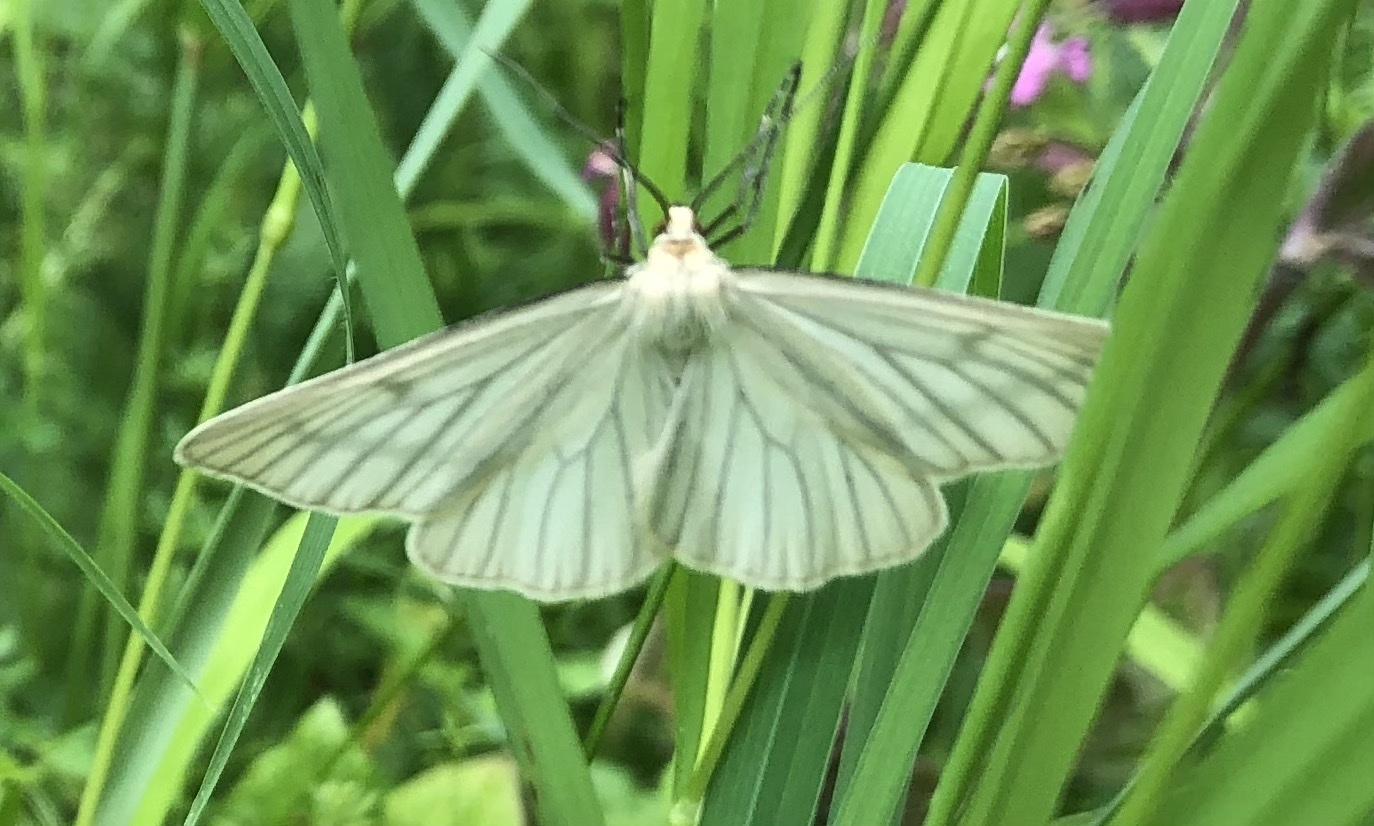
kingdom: Animalia
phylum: Arthropoda
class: Insecta
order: Lepidoptera
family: Geometridae
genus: Siona
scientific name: Siona lineata
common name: Black-veined moth
